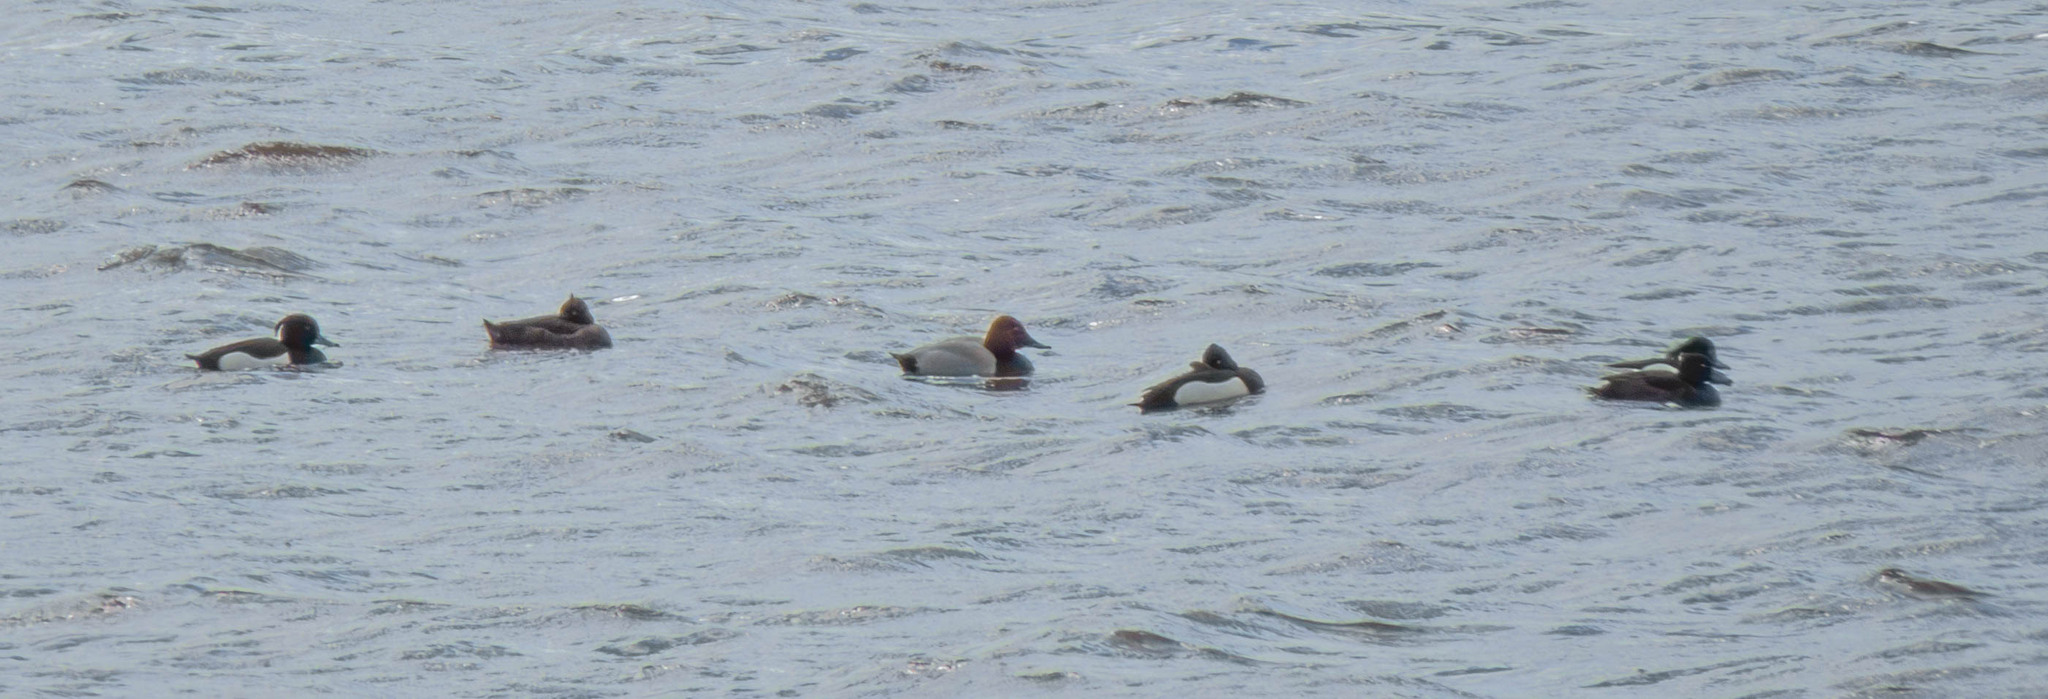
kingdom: Animalia
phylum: Chordata
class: Aves
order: Anseriformes
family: Anatidae
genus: Aythya
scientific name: Aythya fuligula
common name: Tufted duck
